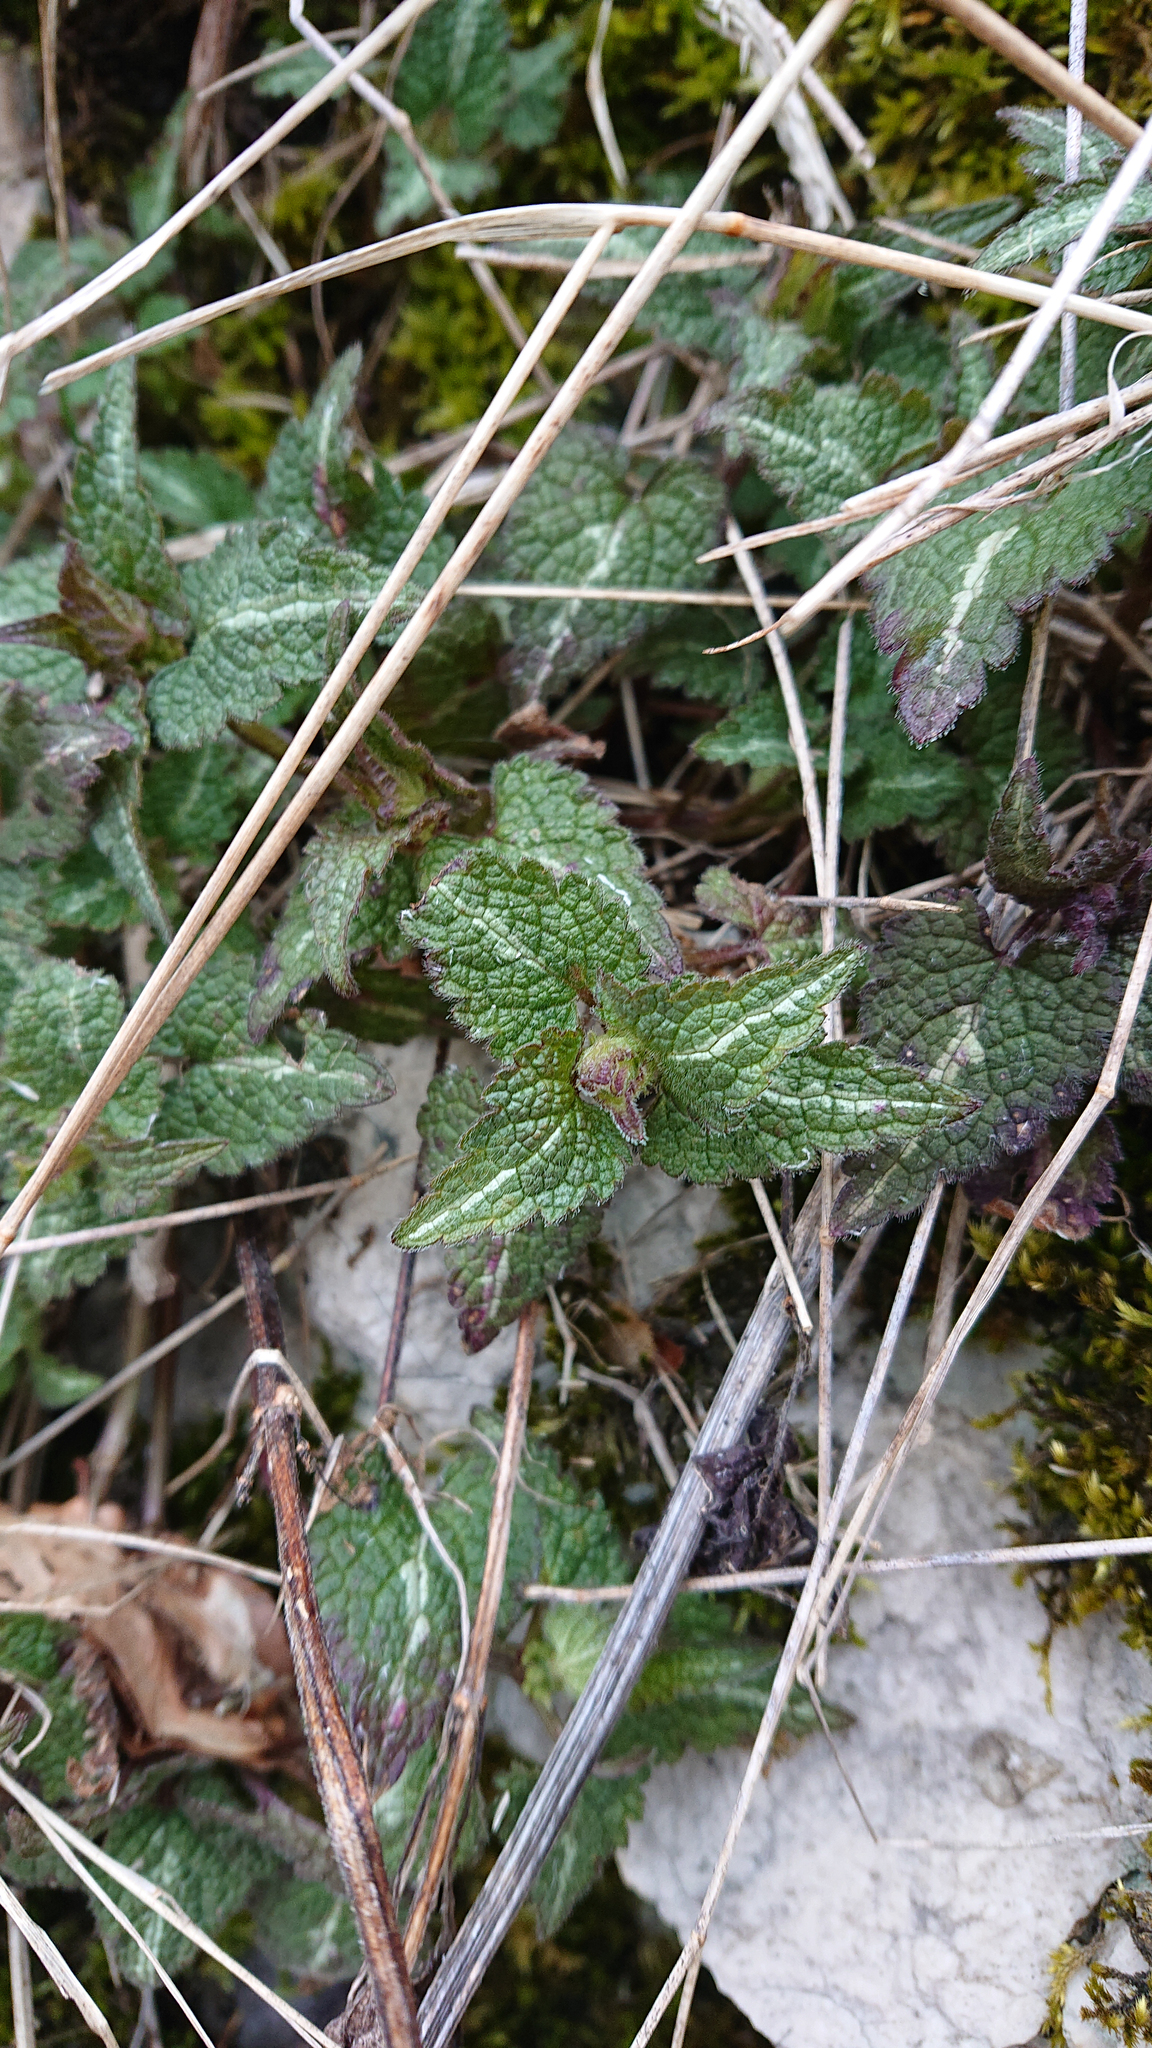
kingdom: Plantae
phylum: Tracheophyta
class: Magnoliopsida
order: Lamiales
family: Lamiaceae
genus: Lamium
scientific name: Lamium maculatum
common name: Spotted dead-nettle
